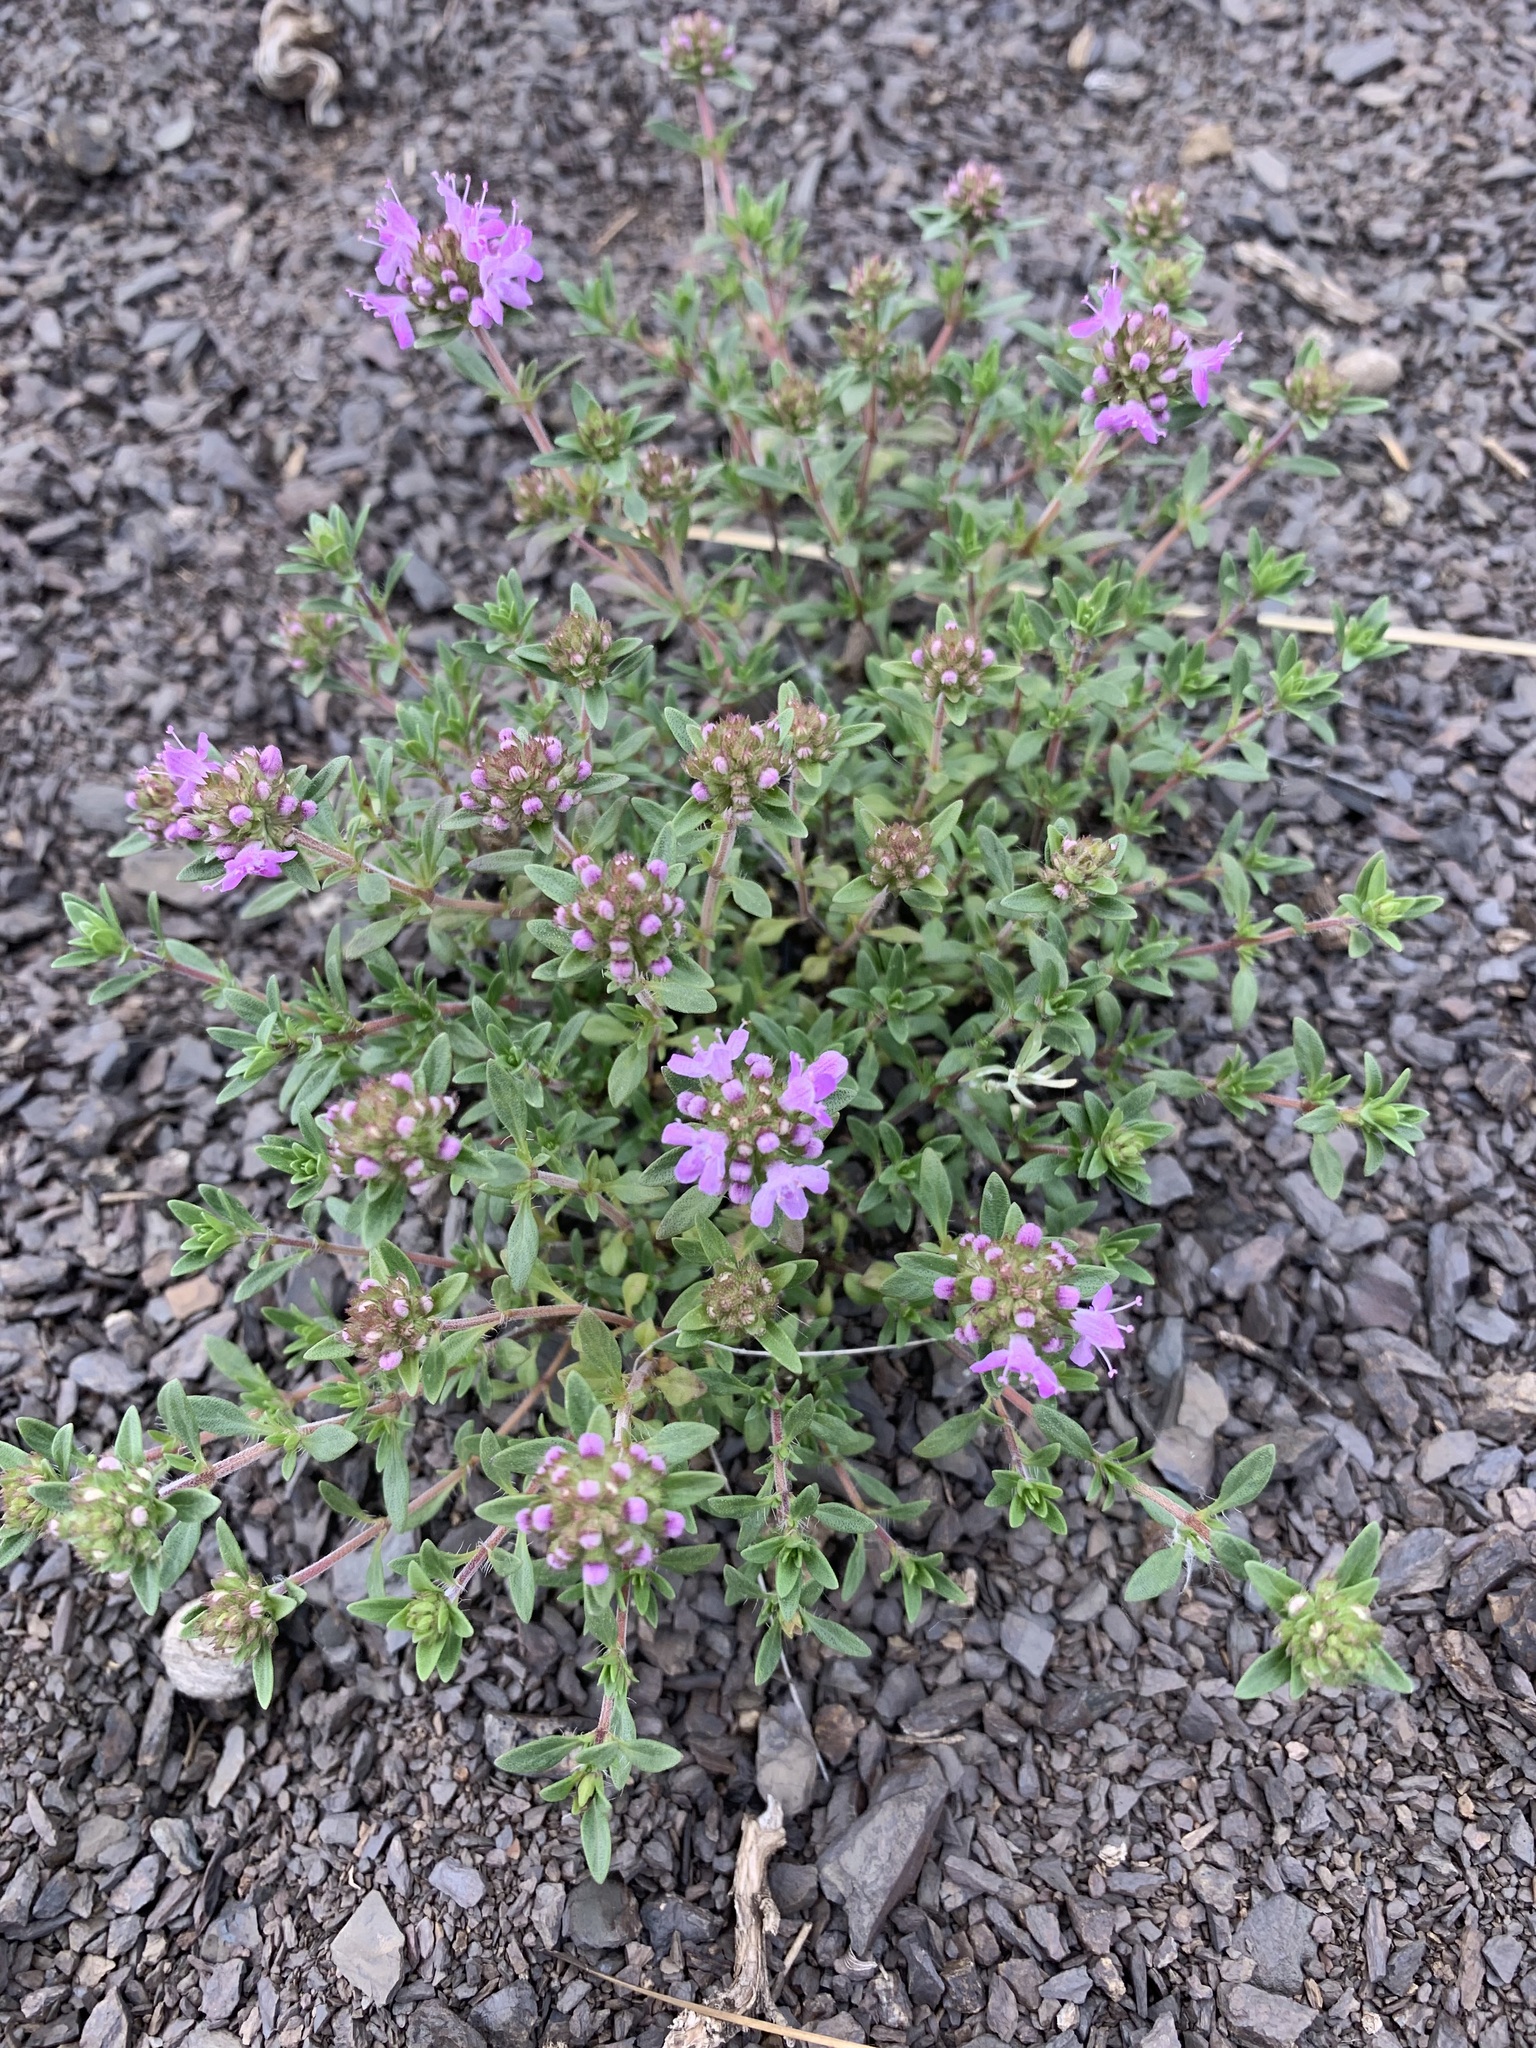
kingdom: Plantae
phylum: Tracheophyta
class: Magnoliopsida
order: Lamiales
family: Lamiaceae
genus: Thymus
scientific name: Thymus guberlinensis
